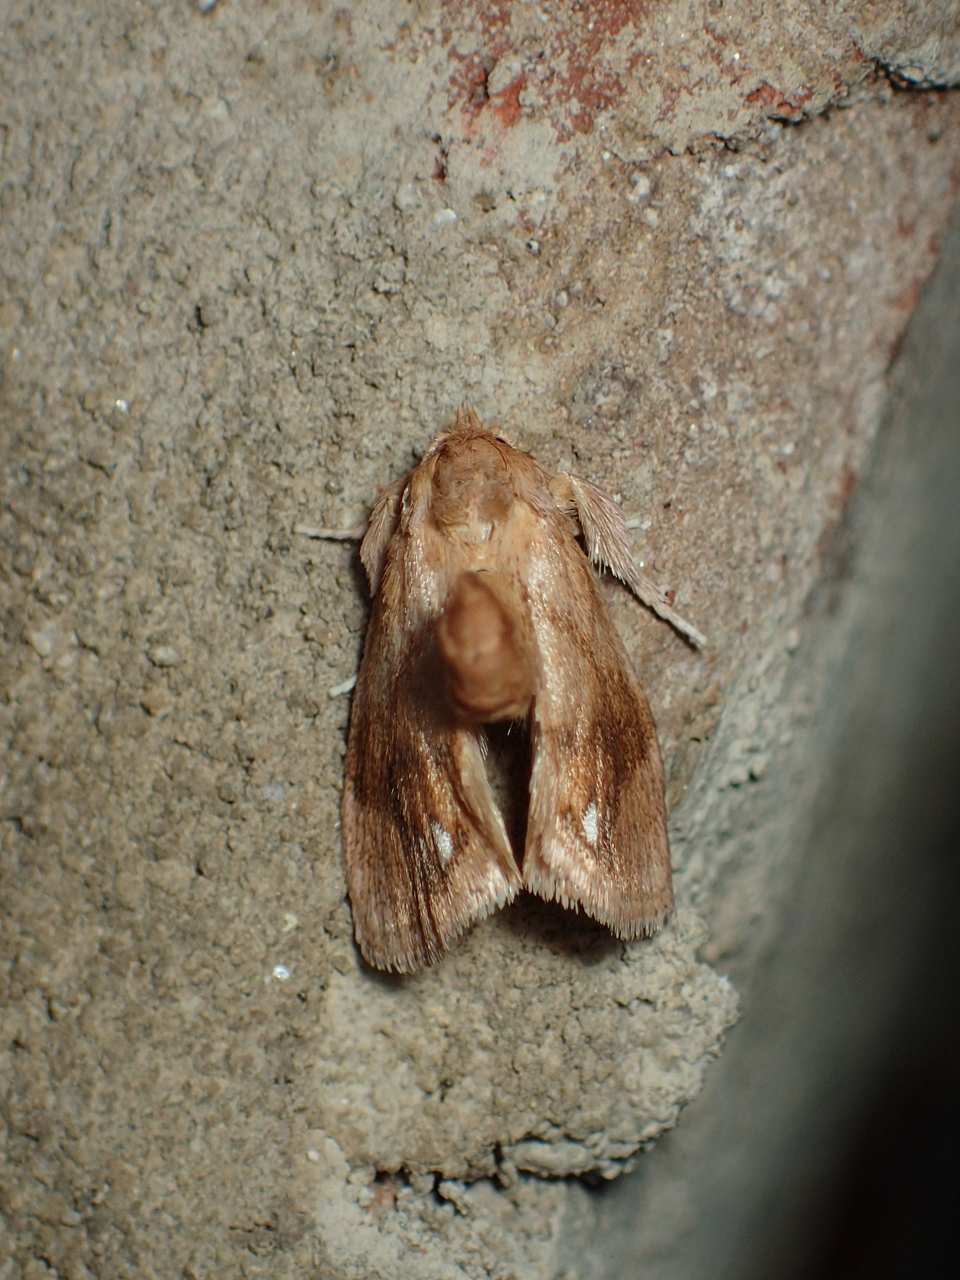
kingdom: Animalia
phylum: Arthropoda
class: Insecta
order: Lepidoptera
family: Limacodidae
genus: Packardia
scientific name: Packardia geminata
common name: Jeweled tailed slug moth
